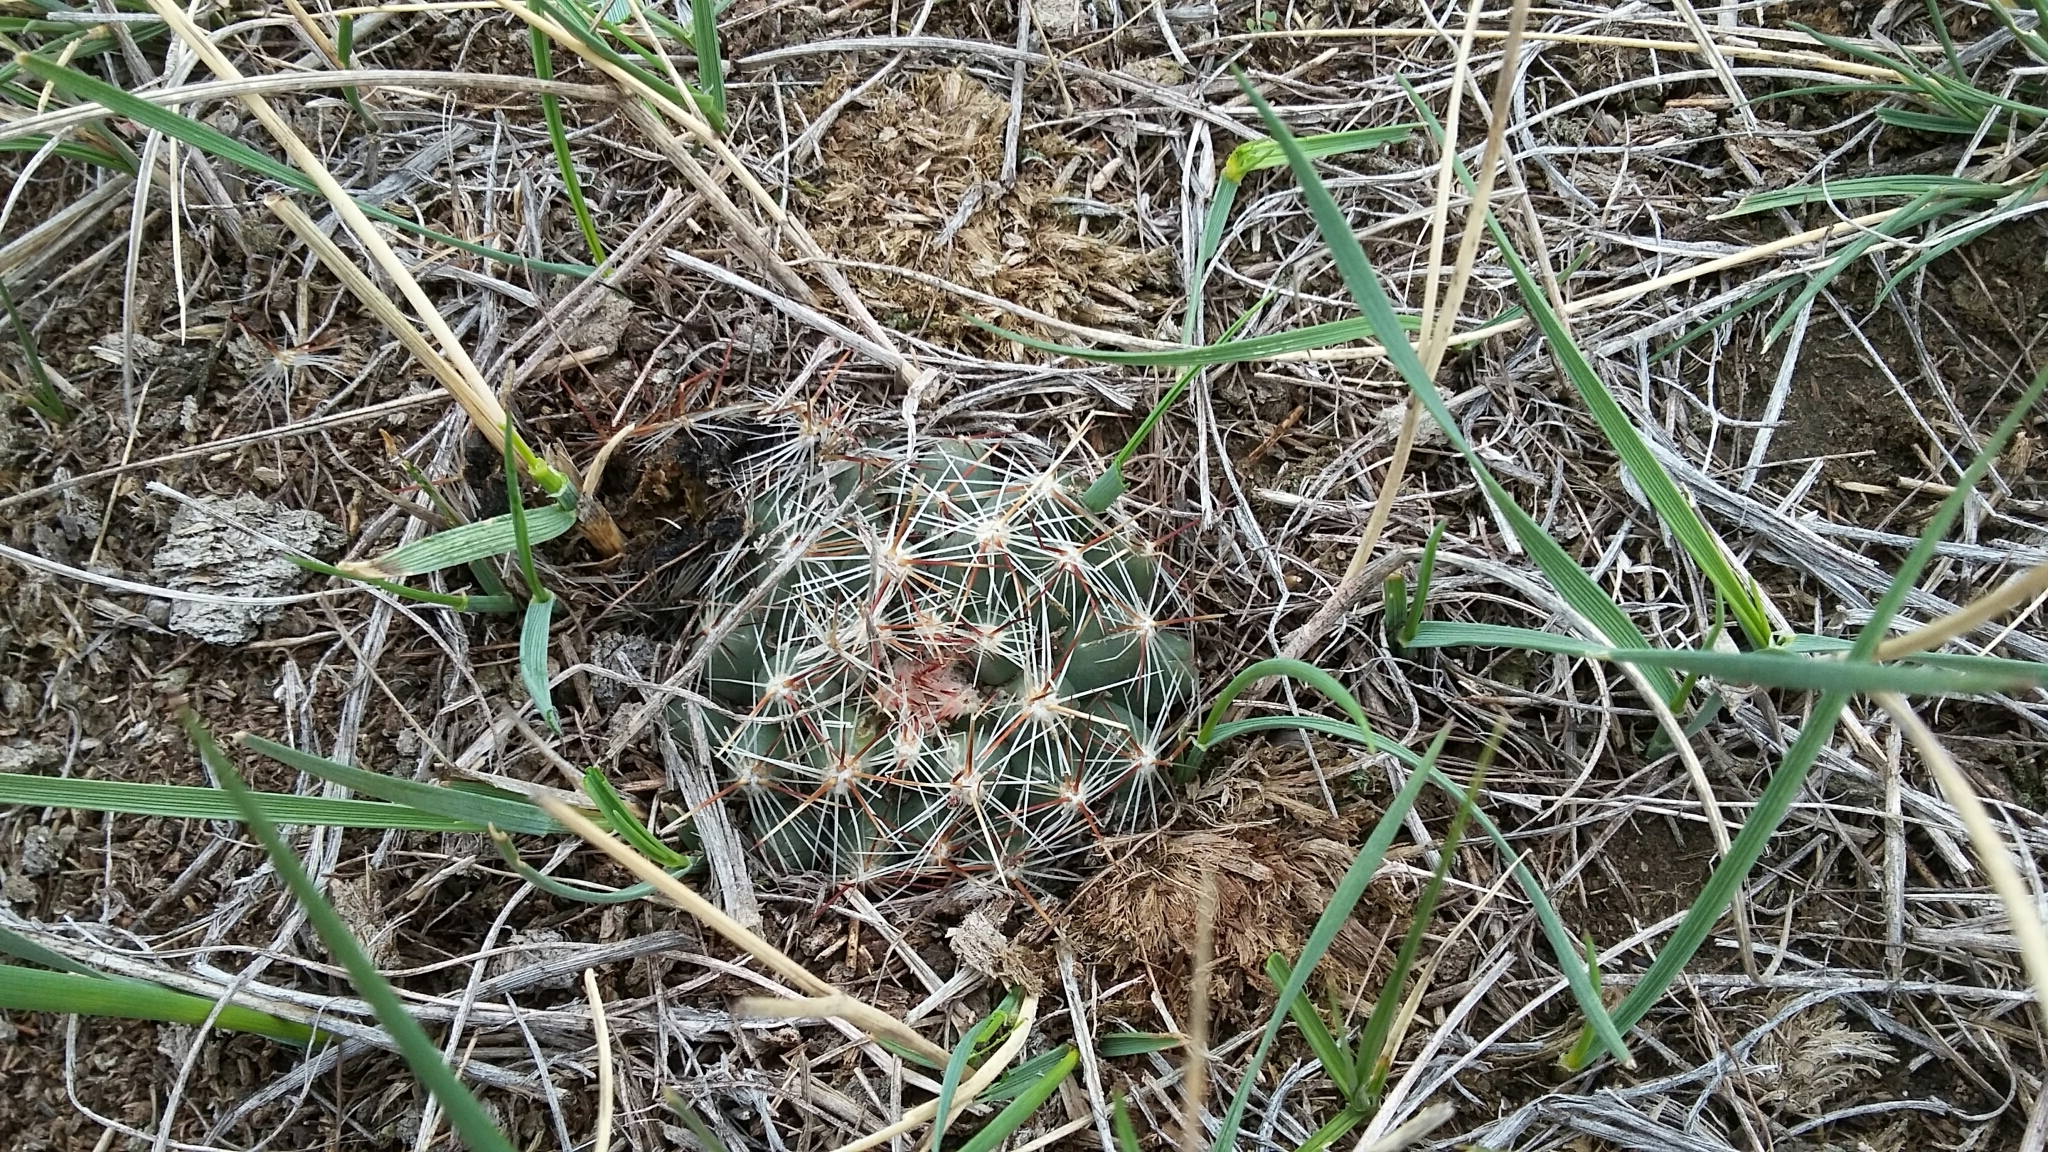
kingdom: Plantae
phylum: Tracheophyta
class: Magnoliopsida
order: Caryophyllales
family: Cactaceae
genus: Pelecyphora
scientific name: Pelecyphora vivipara
